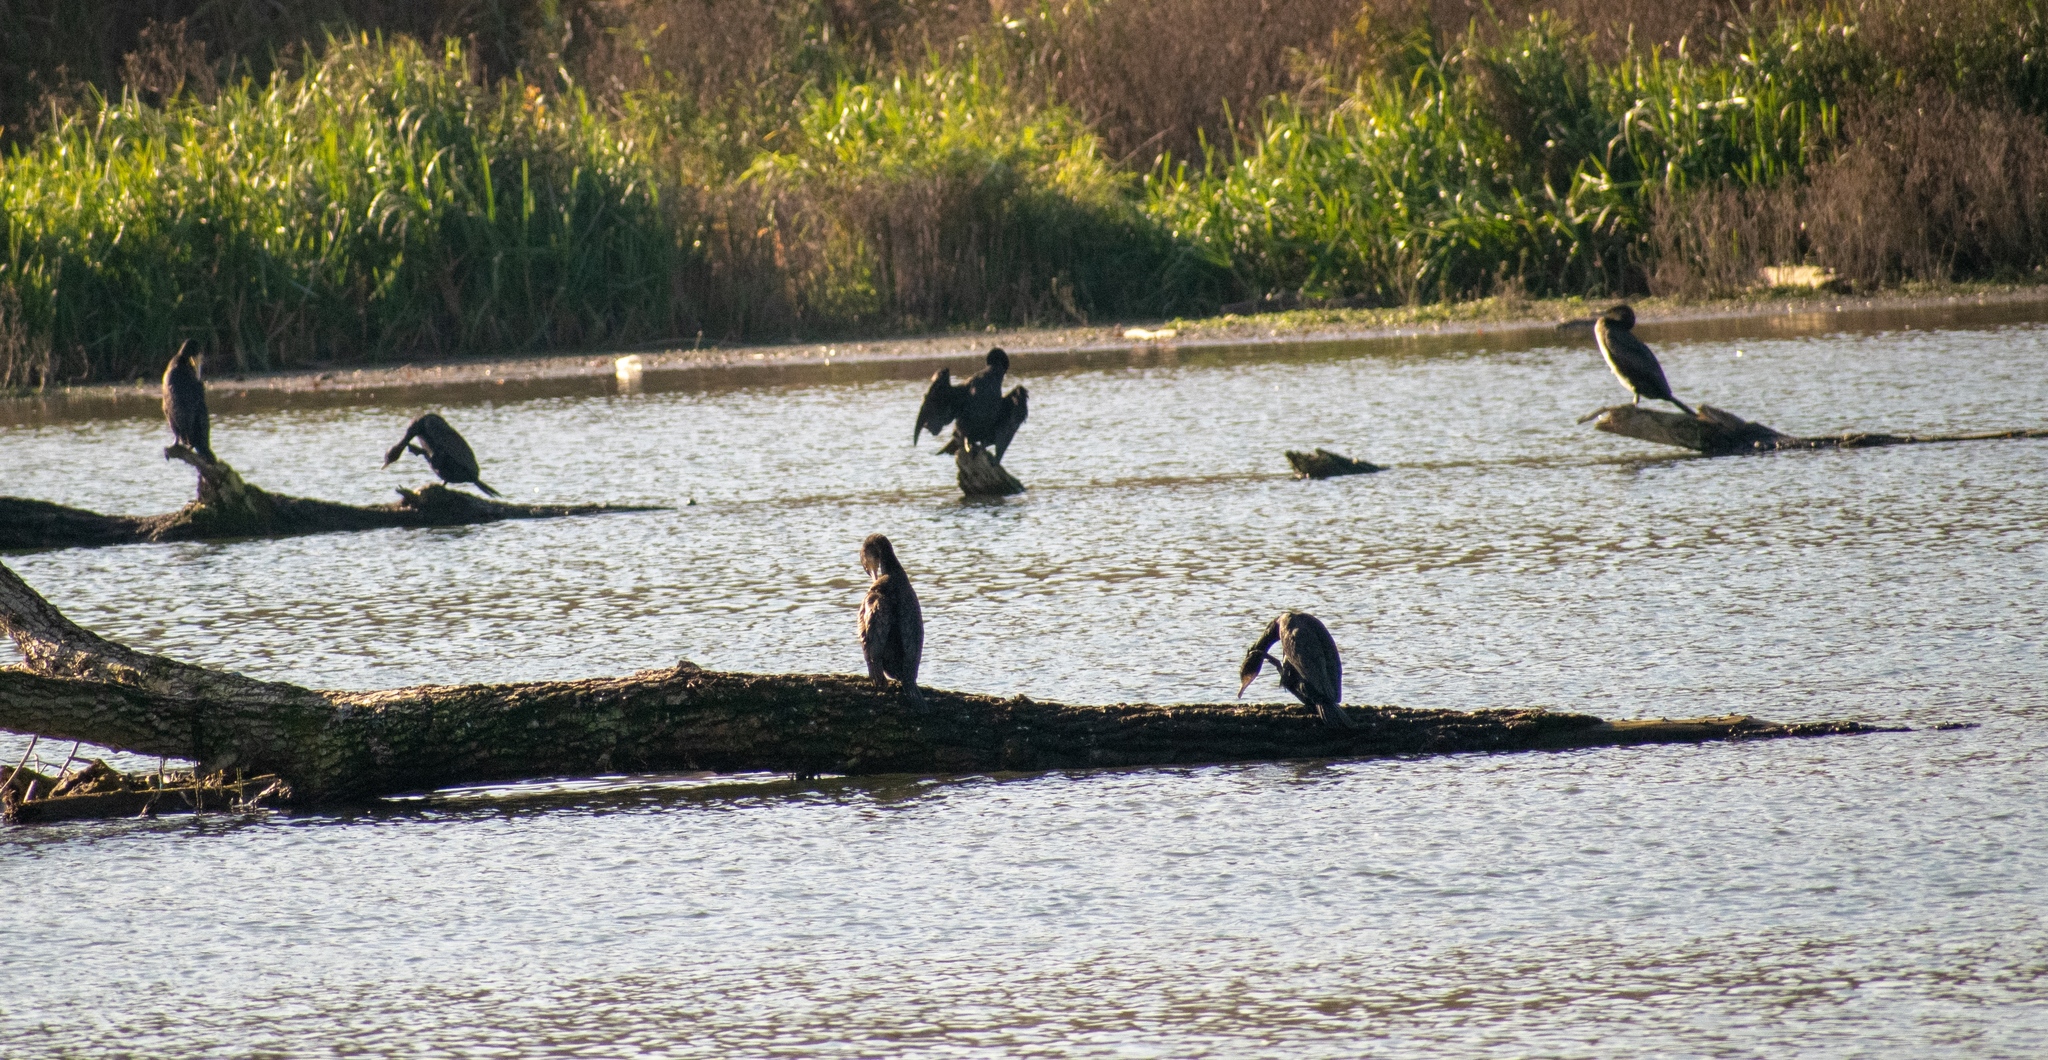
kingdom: Animalia
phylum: Chordata
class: Aves
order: Suliformes
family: Phalacrocoracidae
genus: Phalacrocorax
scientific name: Phalacrocorax carbo
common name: Great cormorant
